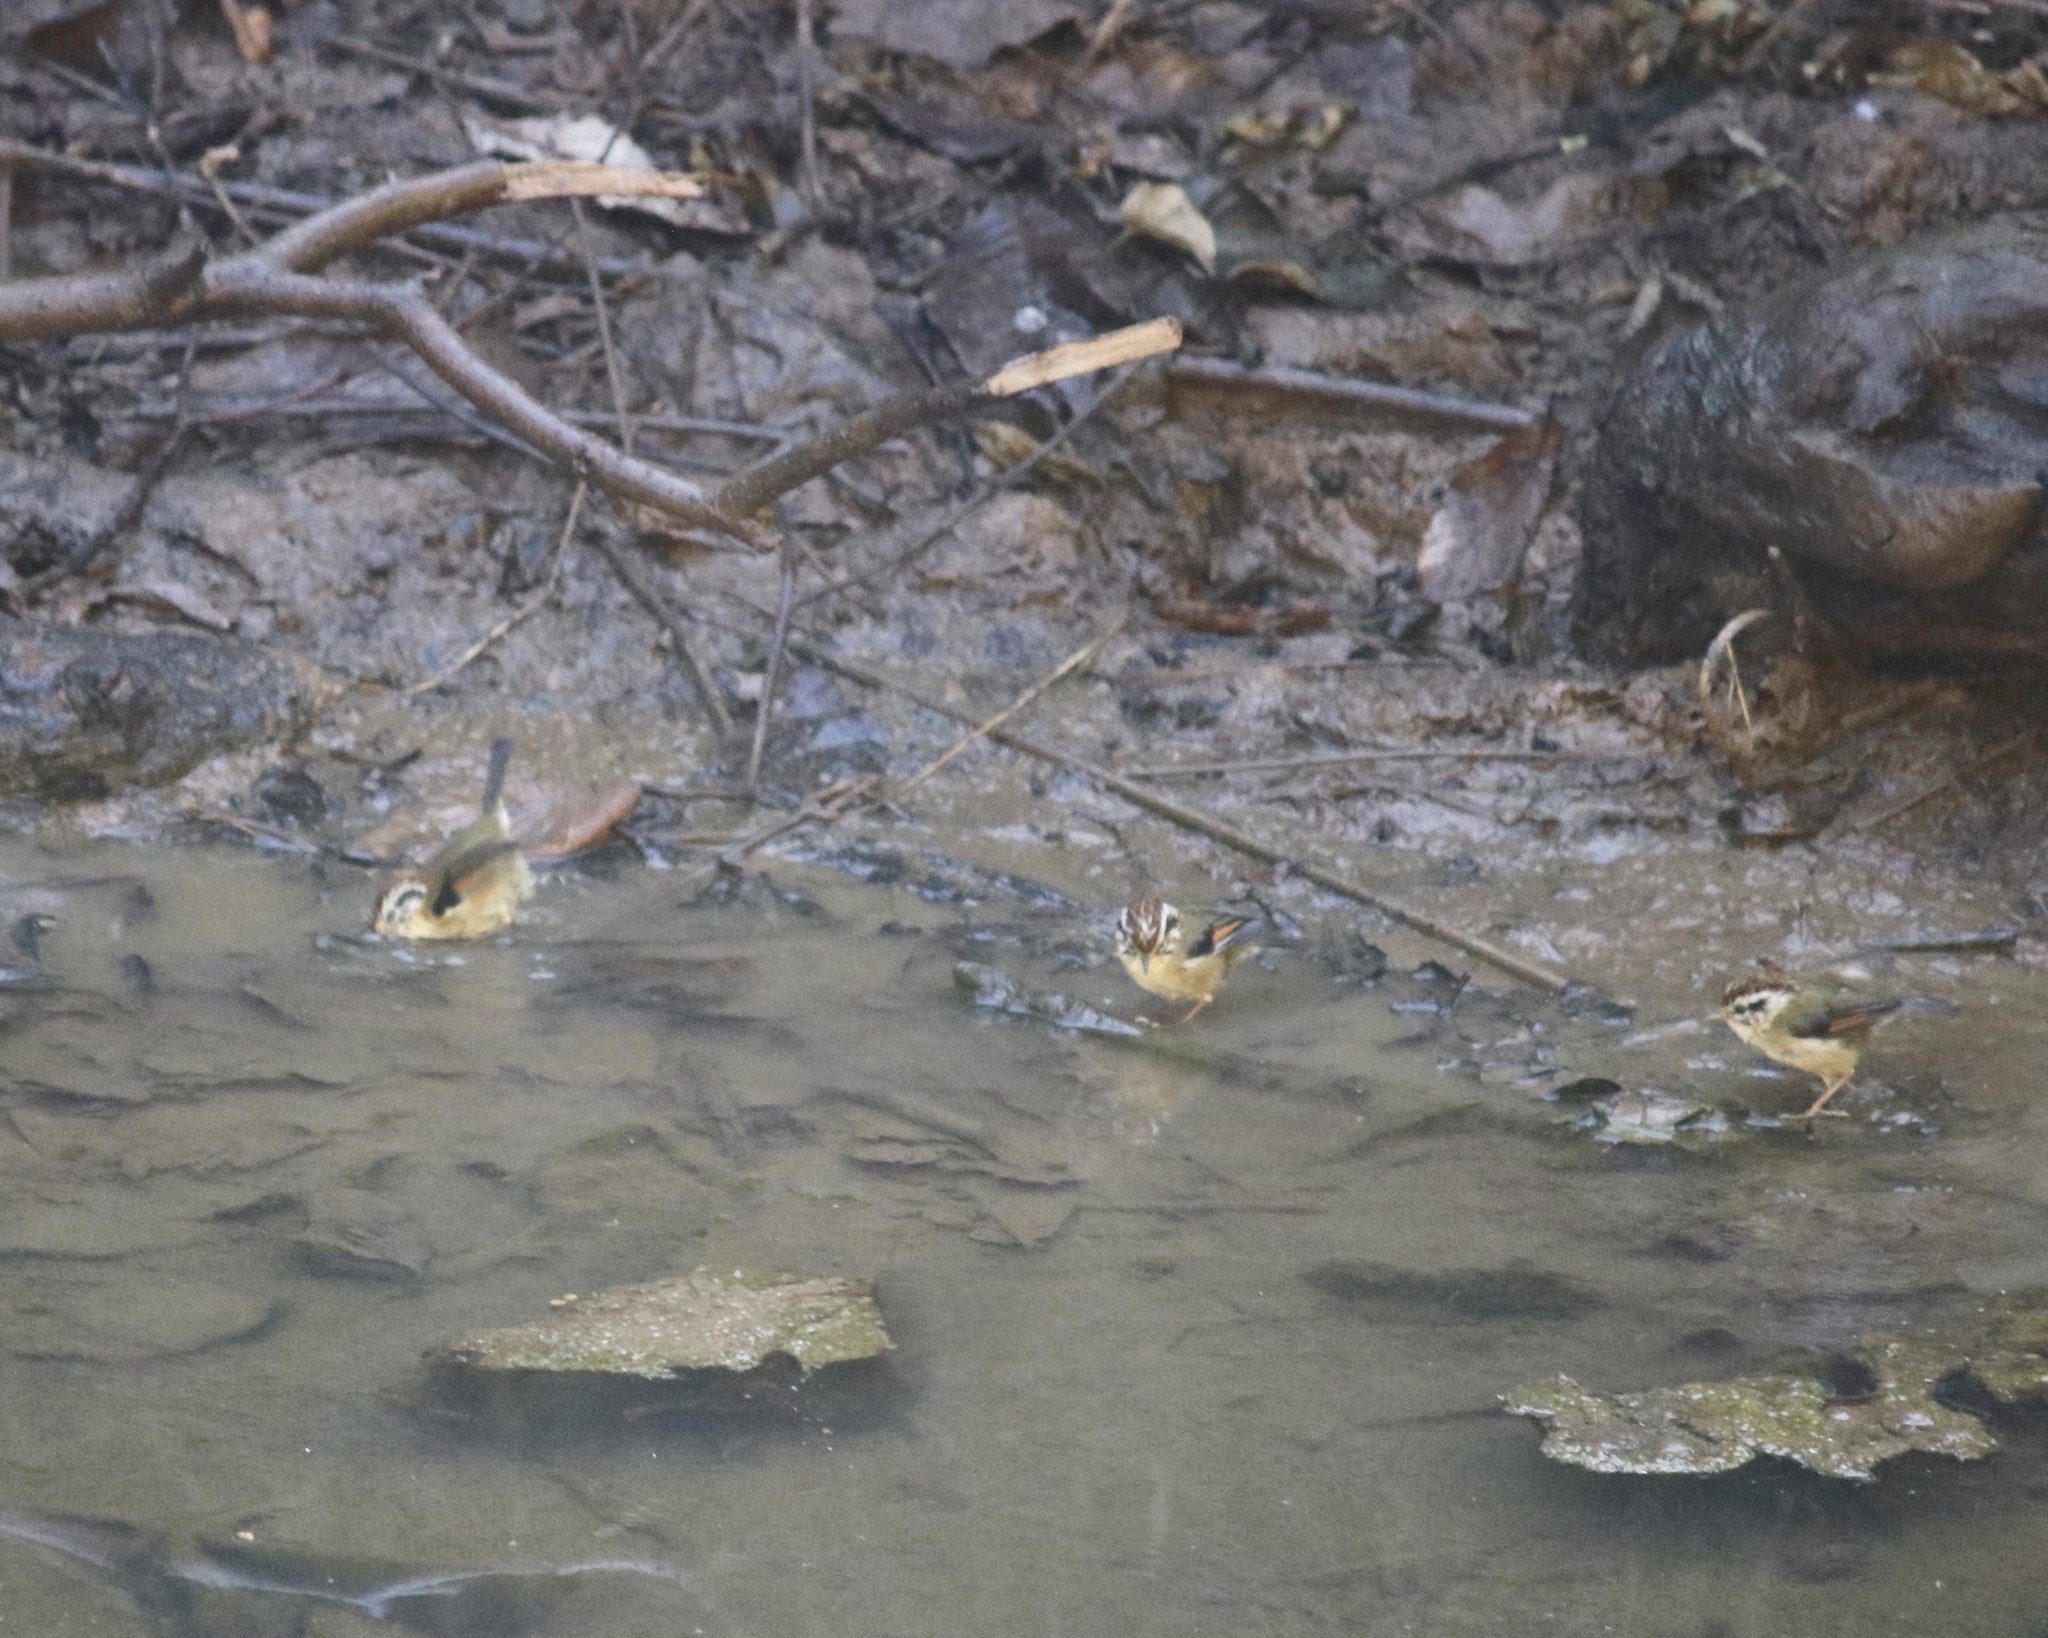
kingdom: Animalia
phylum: Chordata
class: Aves
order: Passeriformes
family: Pellorneidae
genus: Alcippe
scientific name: Alcippe castaneceps
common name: Rufous-winged fulvetta
